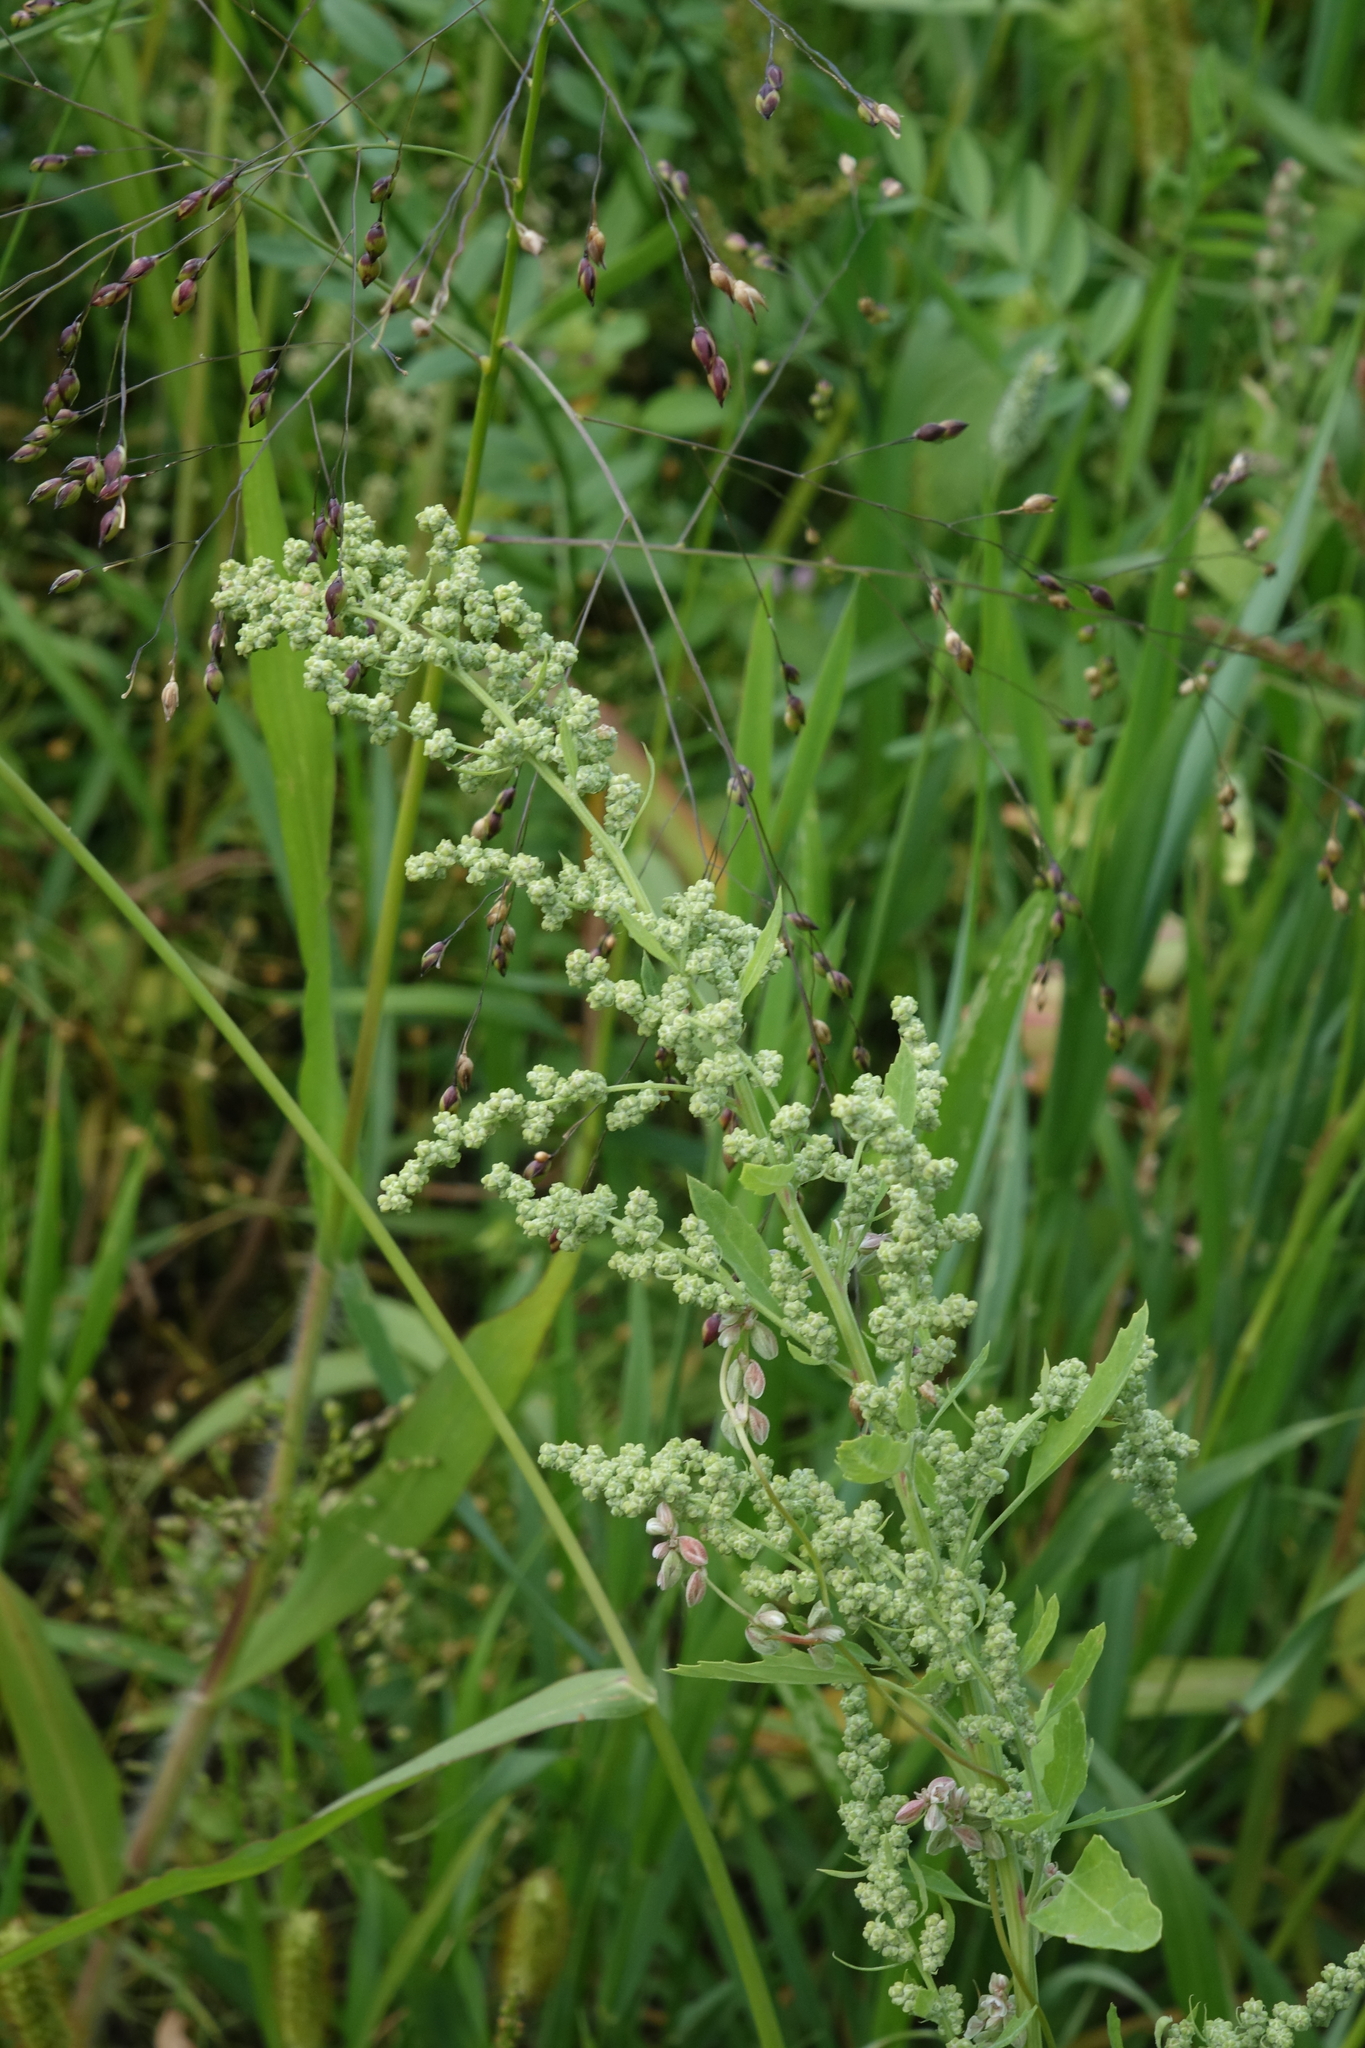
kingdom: Plantae
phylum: Tracheophyta
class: Magnoliopsida
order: Caryophyllales
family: Amaranthaceae
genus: Chenopodium
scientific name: Chenopodium album
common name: Fat-hen
